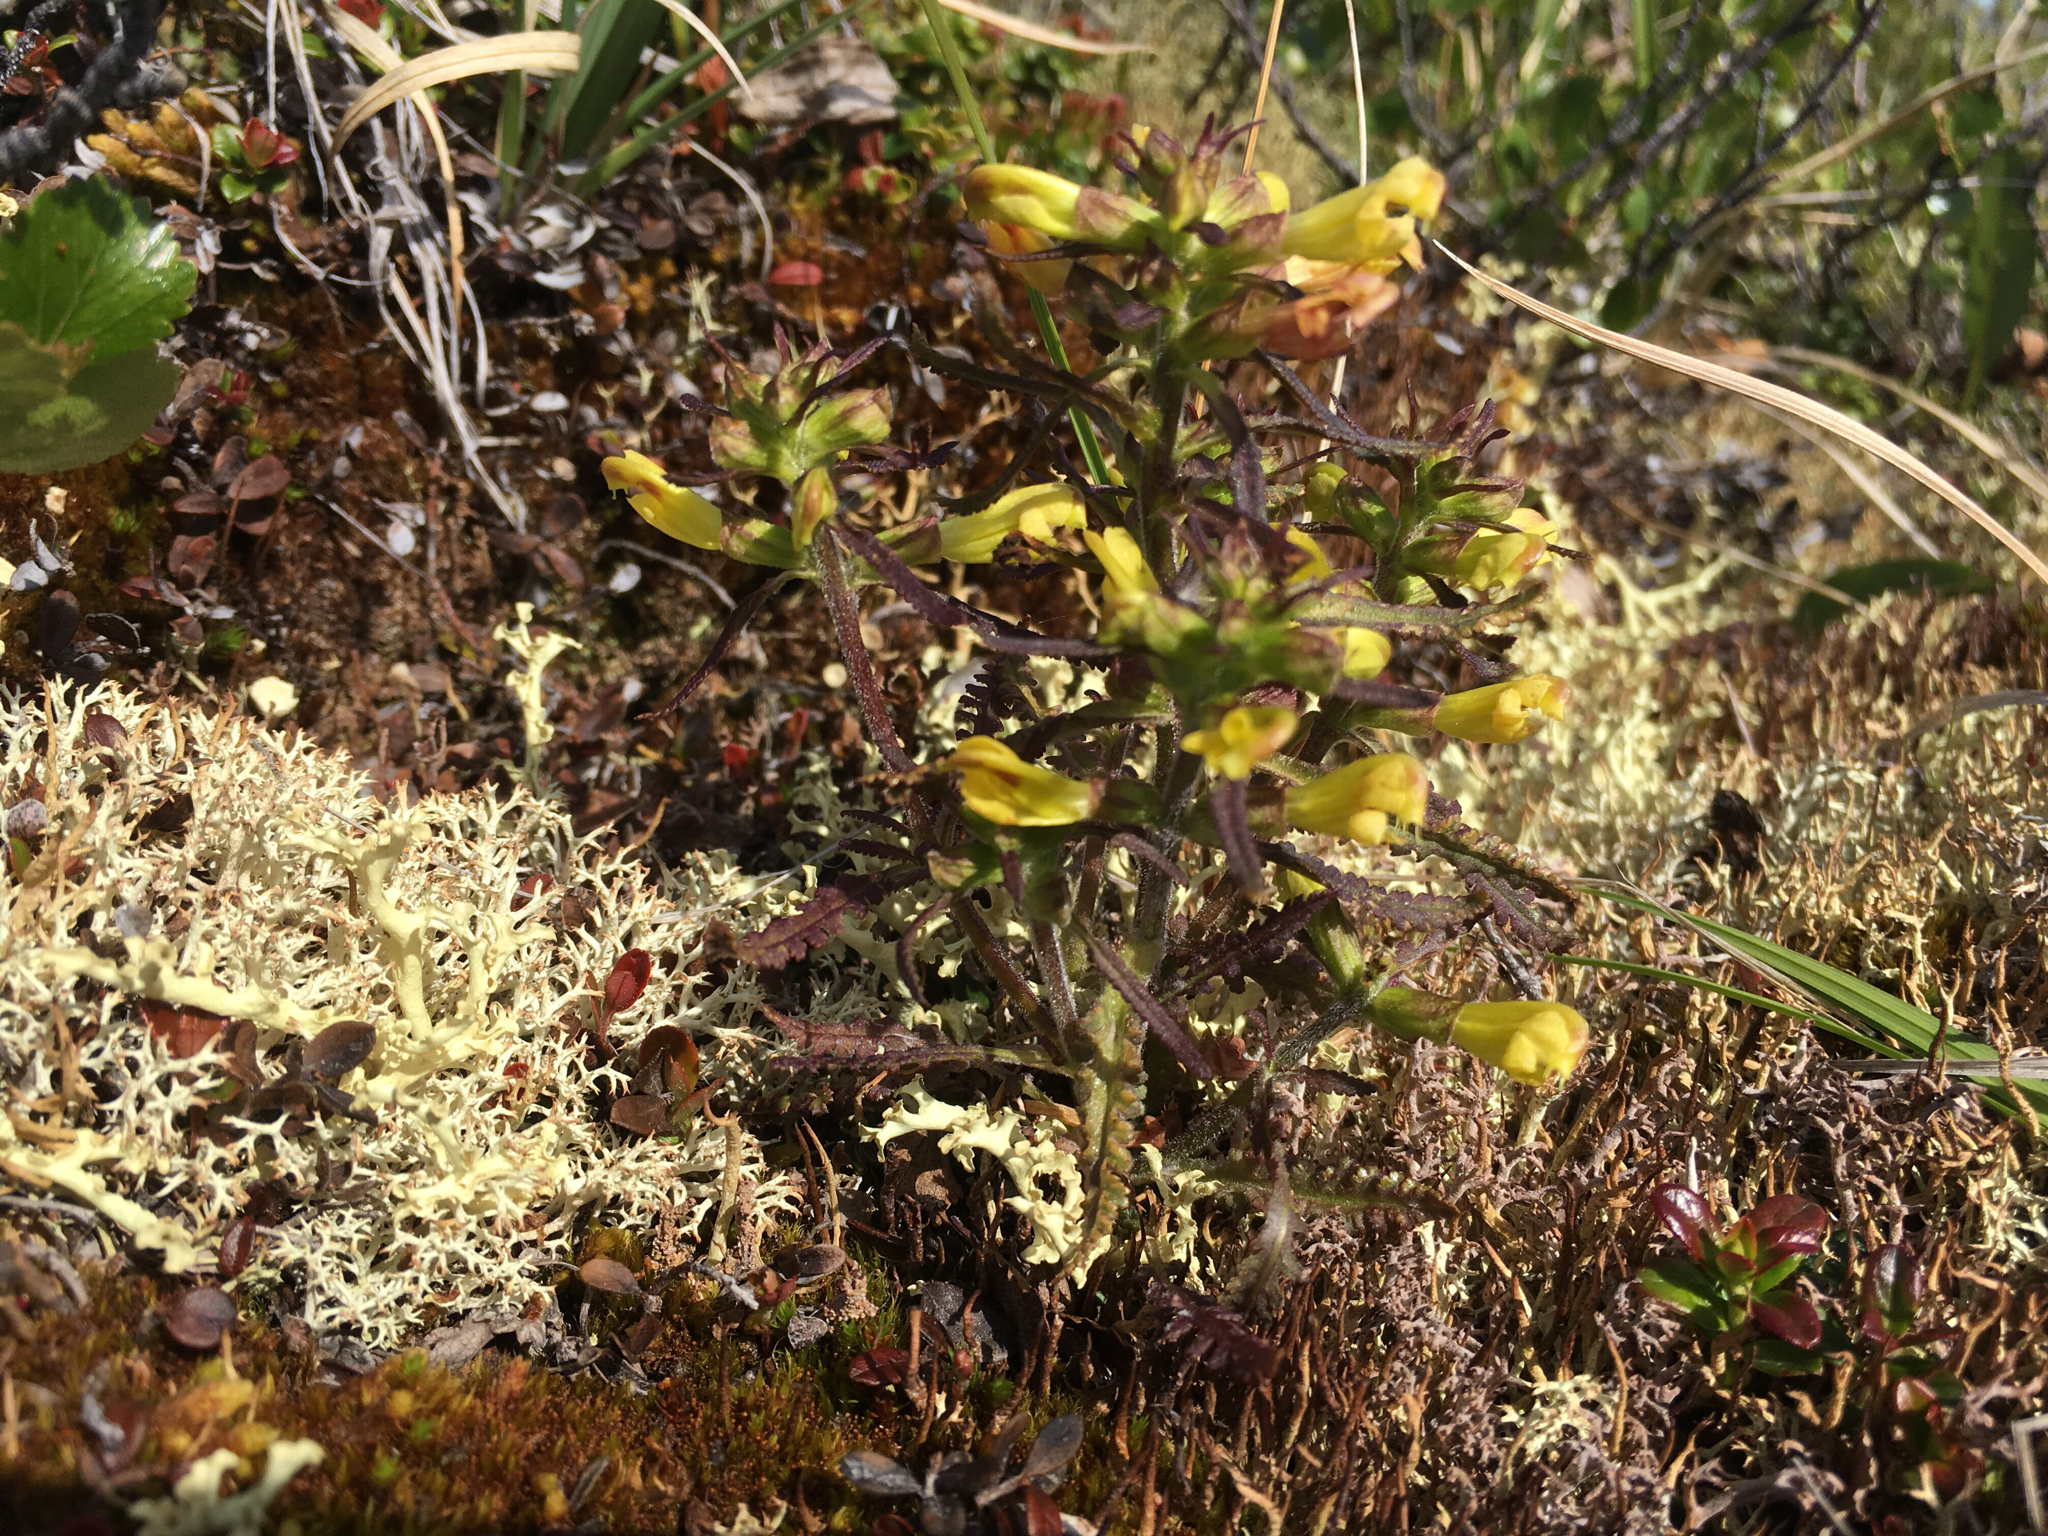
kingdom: Plantae
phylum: Tracheophyta
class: Magnoliopsida
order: Lamiales
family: Orobanchaceae
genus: Pedicularis
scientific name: Pedicularis labradorica
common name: Labrador lousewort
